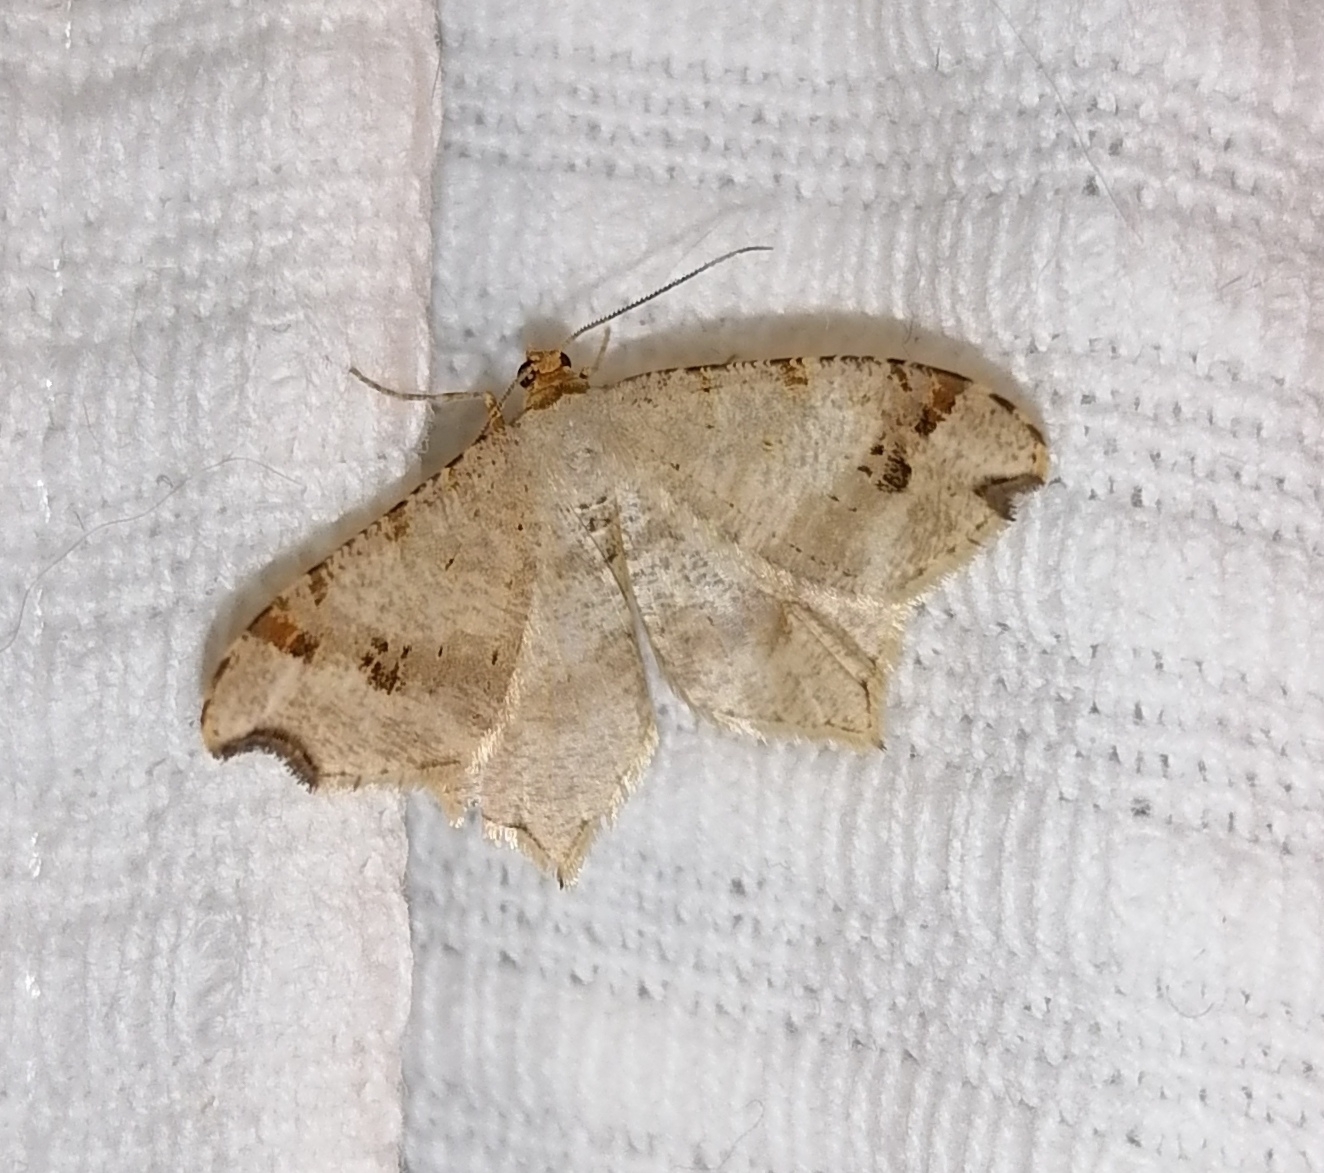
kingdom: Animalia
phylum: Arthropoda
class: Insecta
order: Lepidoptera
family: Geometridae
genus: Macaria
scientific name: Macaria alternata
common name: Sharp-angled peacock
